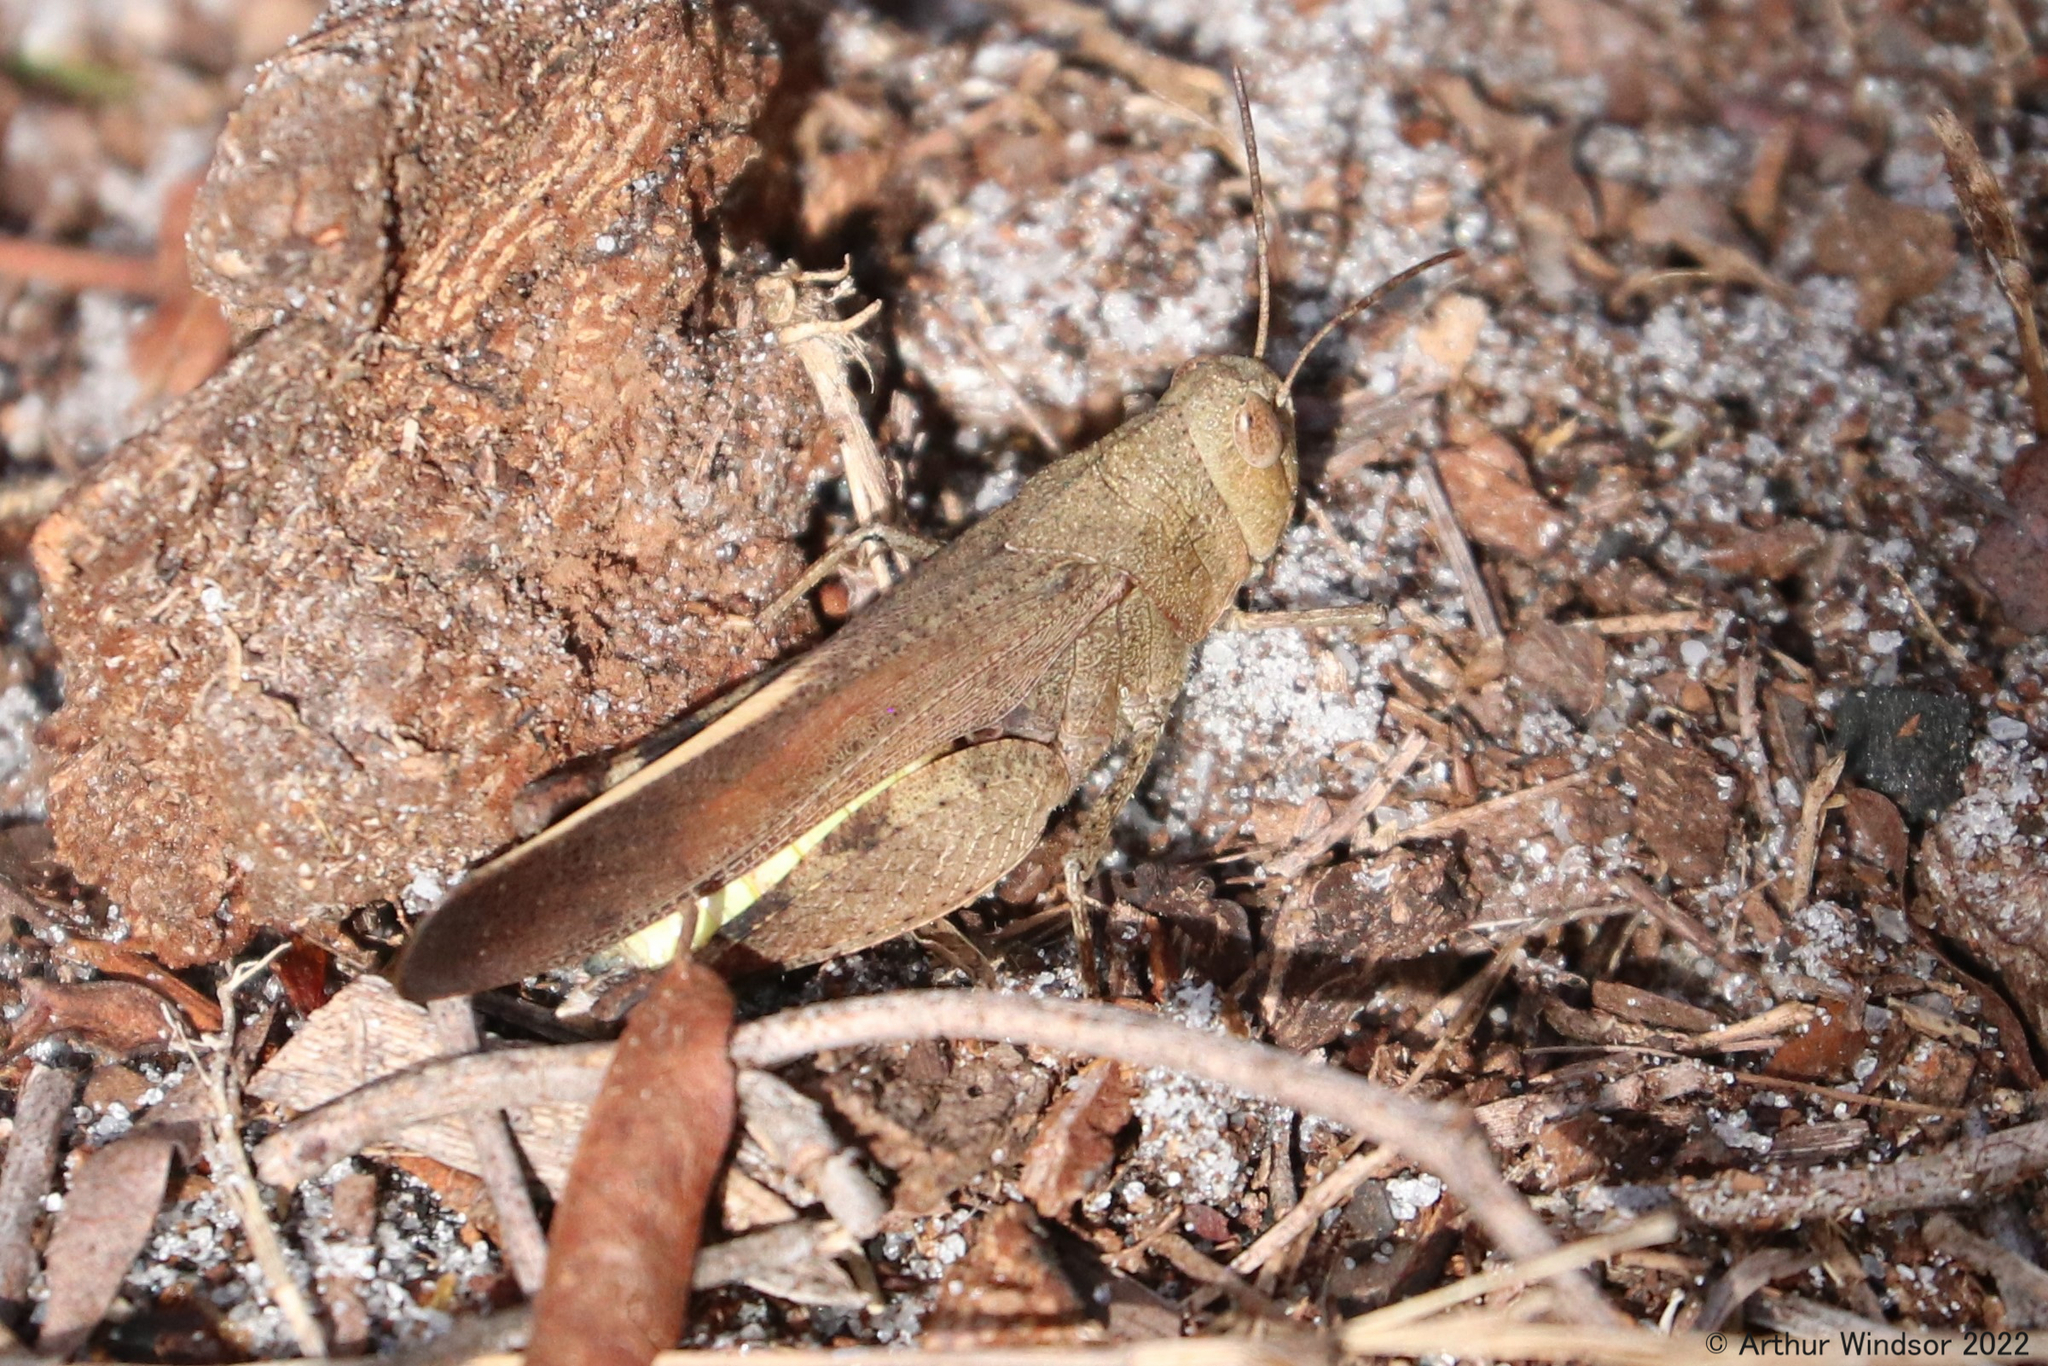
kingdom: Animalia
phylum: Arthropoda
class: Insecta
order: Orthoptera
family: Acrididae
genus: Arphia
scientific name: Arphia granulata
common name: Southern yellow-winged grasshopper
